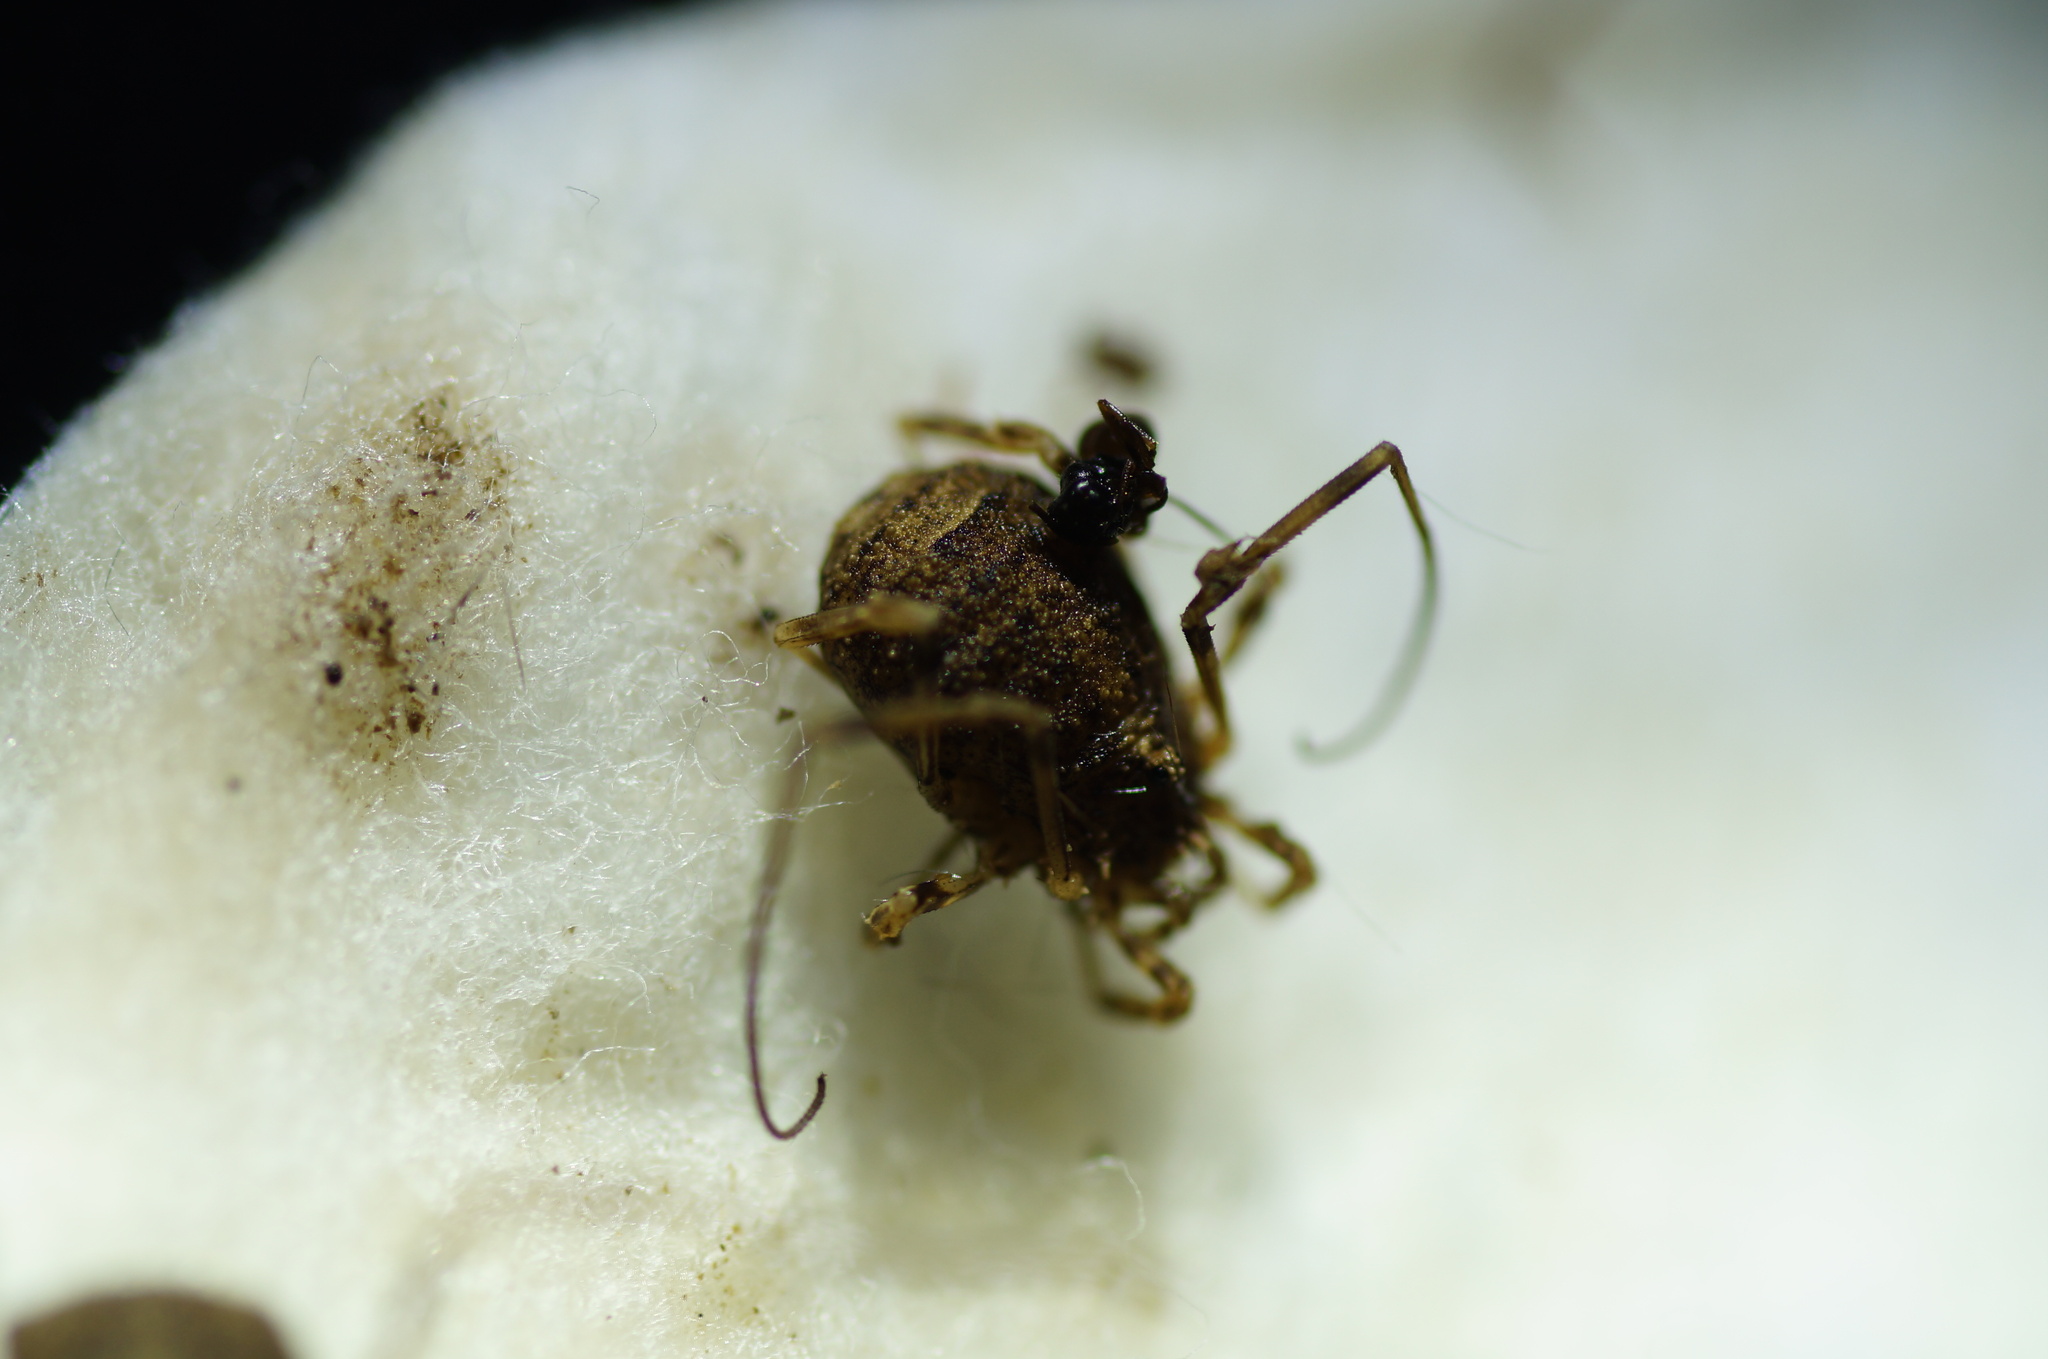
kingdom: Animalia
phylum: Arthropoda
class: Arachnida
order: Opiliones
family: Phalangiidae
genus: Odiellus
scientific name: Odiellus lendlii
